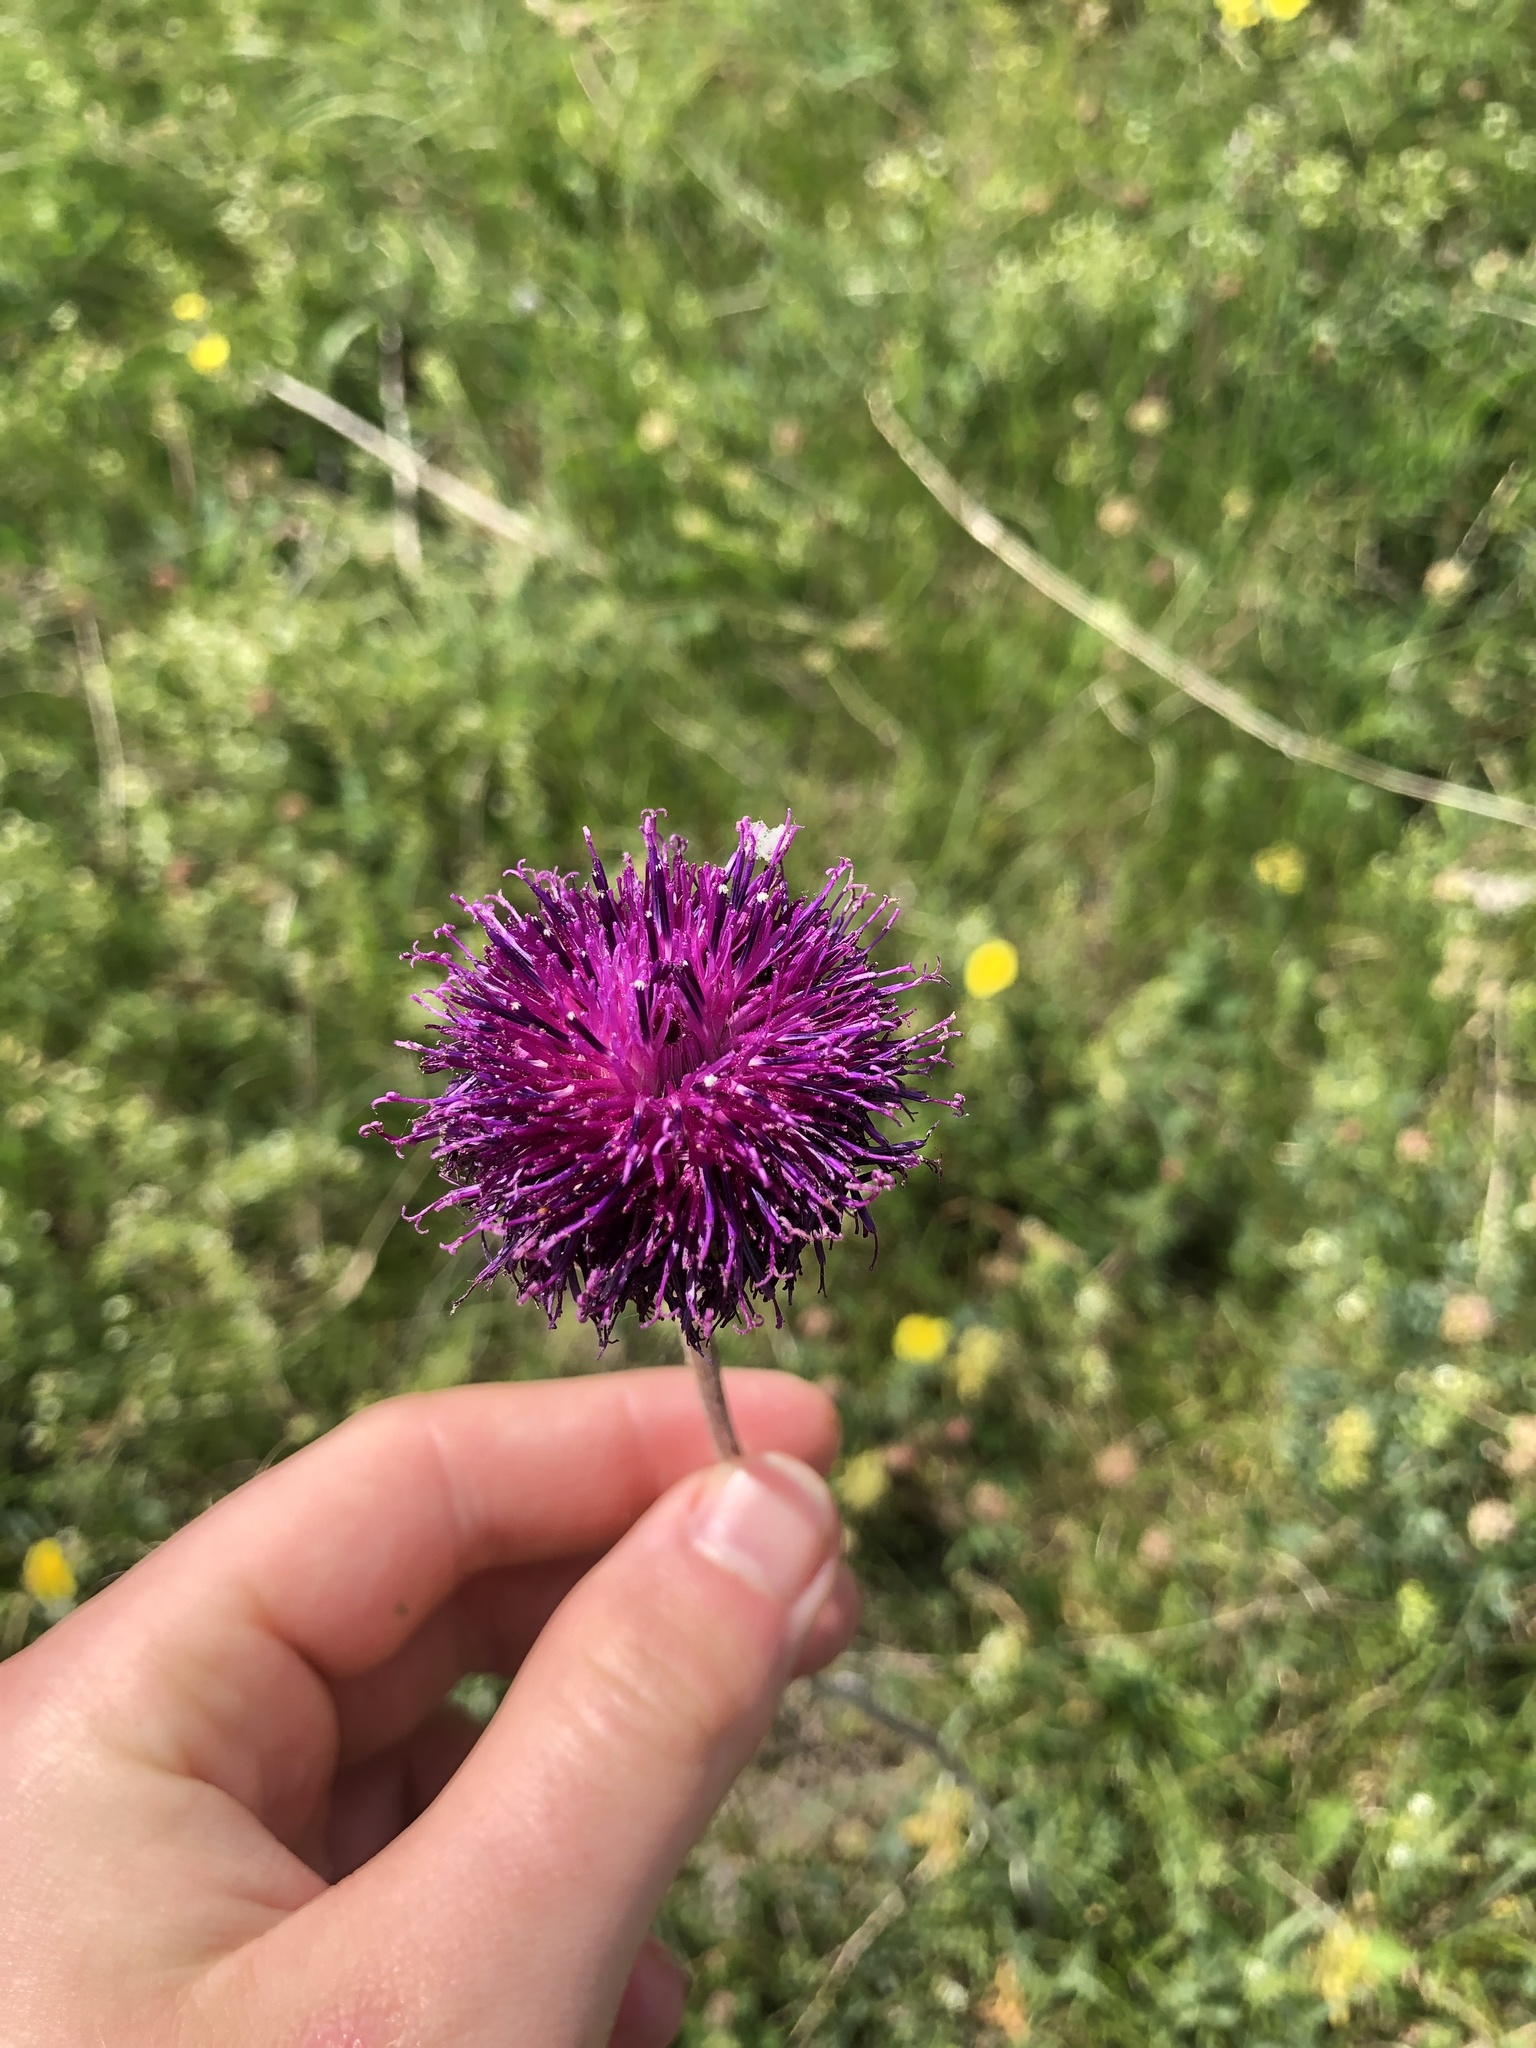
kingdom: Plantae
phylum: Tracheophyta
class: Magnoliopsida
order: Asterales
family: Asteraceae
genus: Jurinea
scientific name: Jurinea mollis
